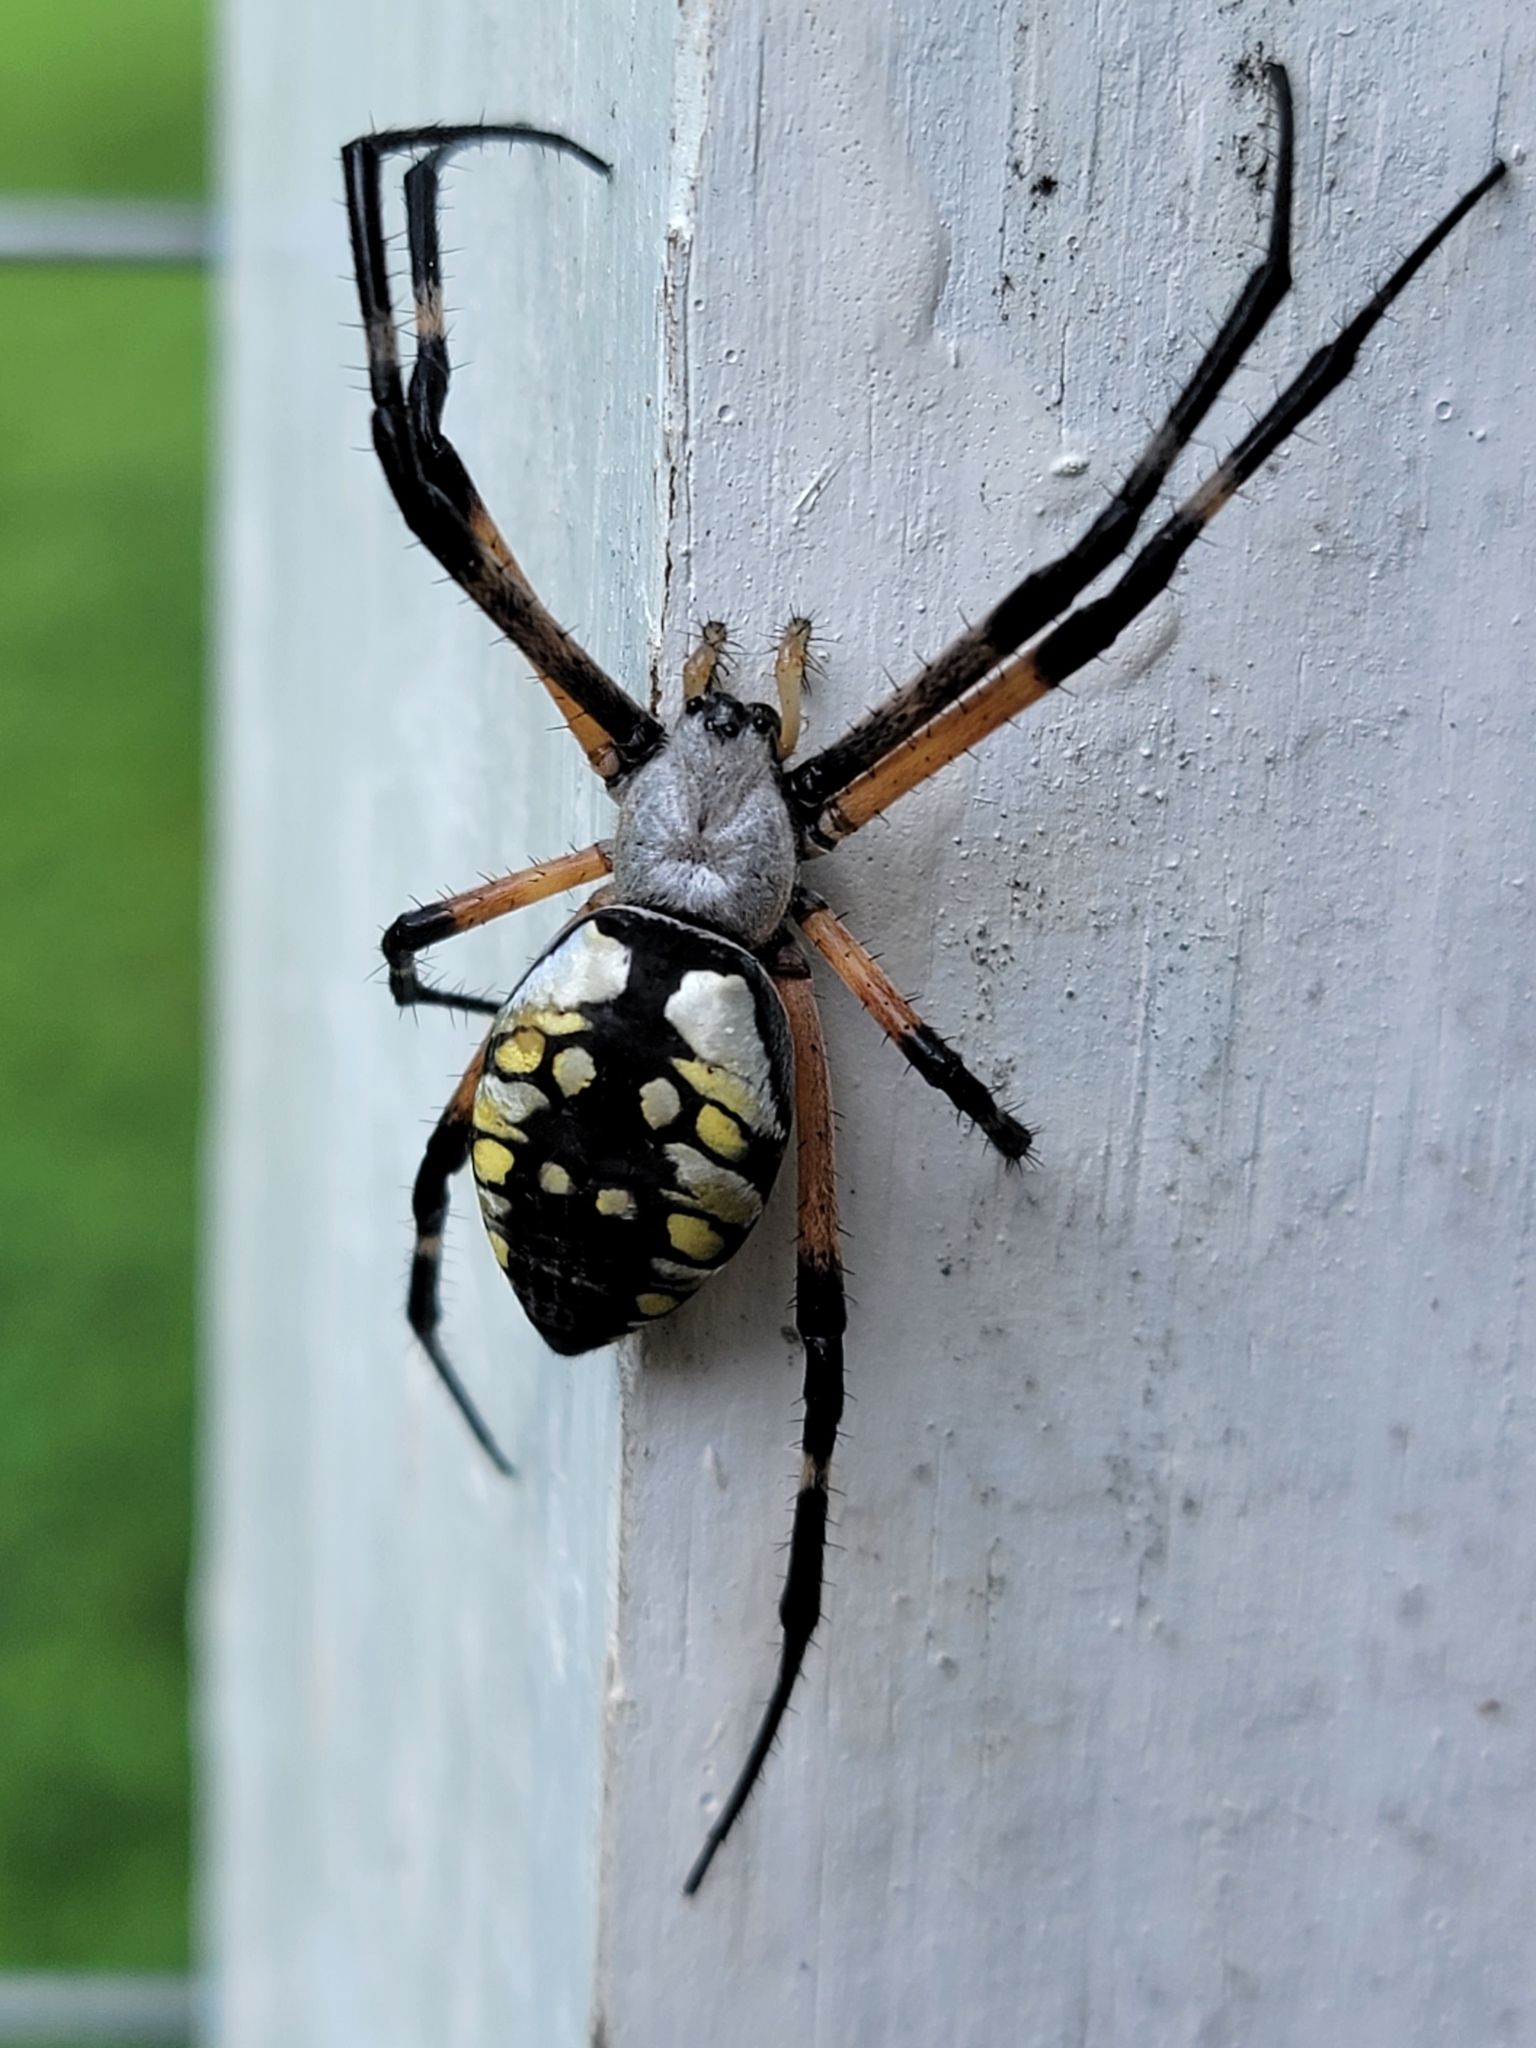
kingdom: Animalia
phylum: Arthropoda
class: Arachnida
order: Araneae
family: Araneidae
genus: Argiope
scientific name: Argiope aurantia
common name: Orb weavers
